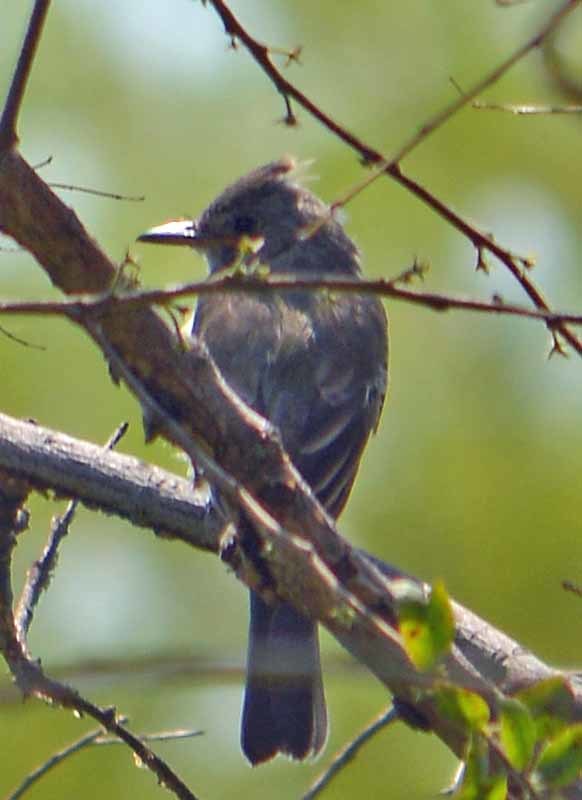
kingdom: Animalia
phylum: Chordata
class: Aves
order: Passeriformes
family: Tyrannidae
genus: Contopus
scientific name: Contopus pertinax
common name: Greater pewee
